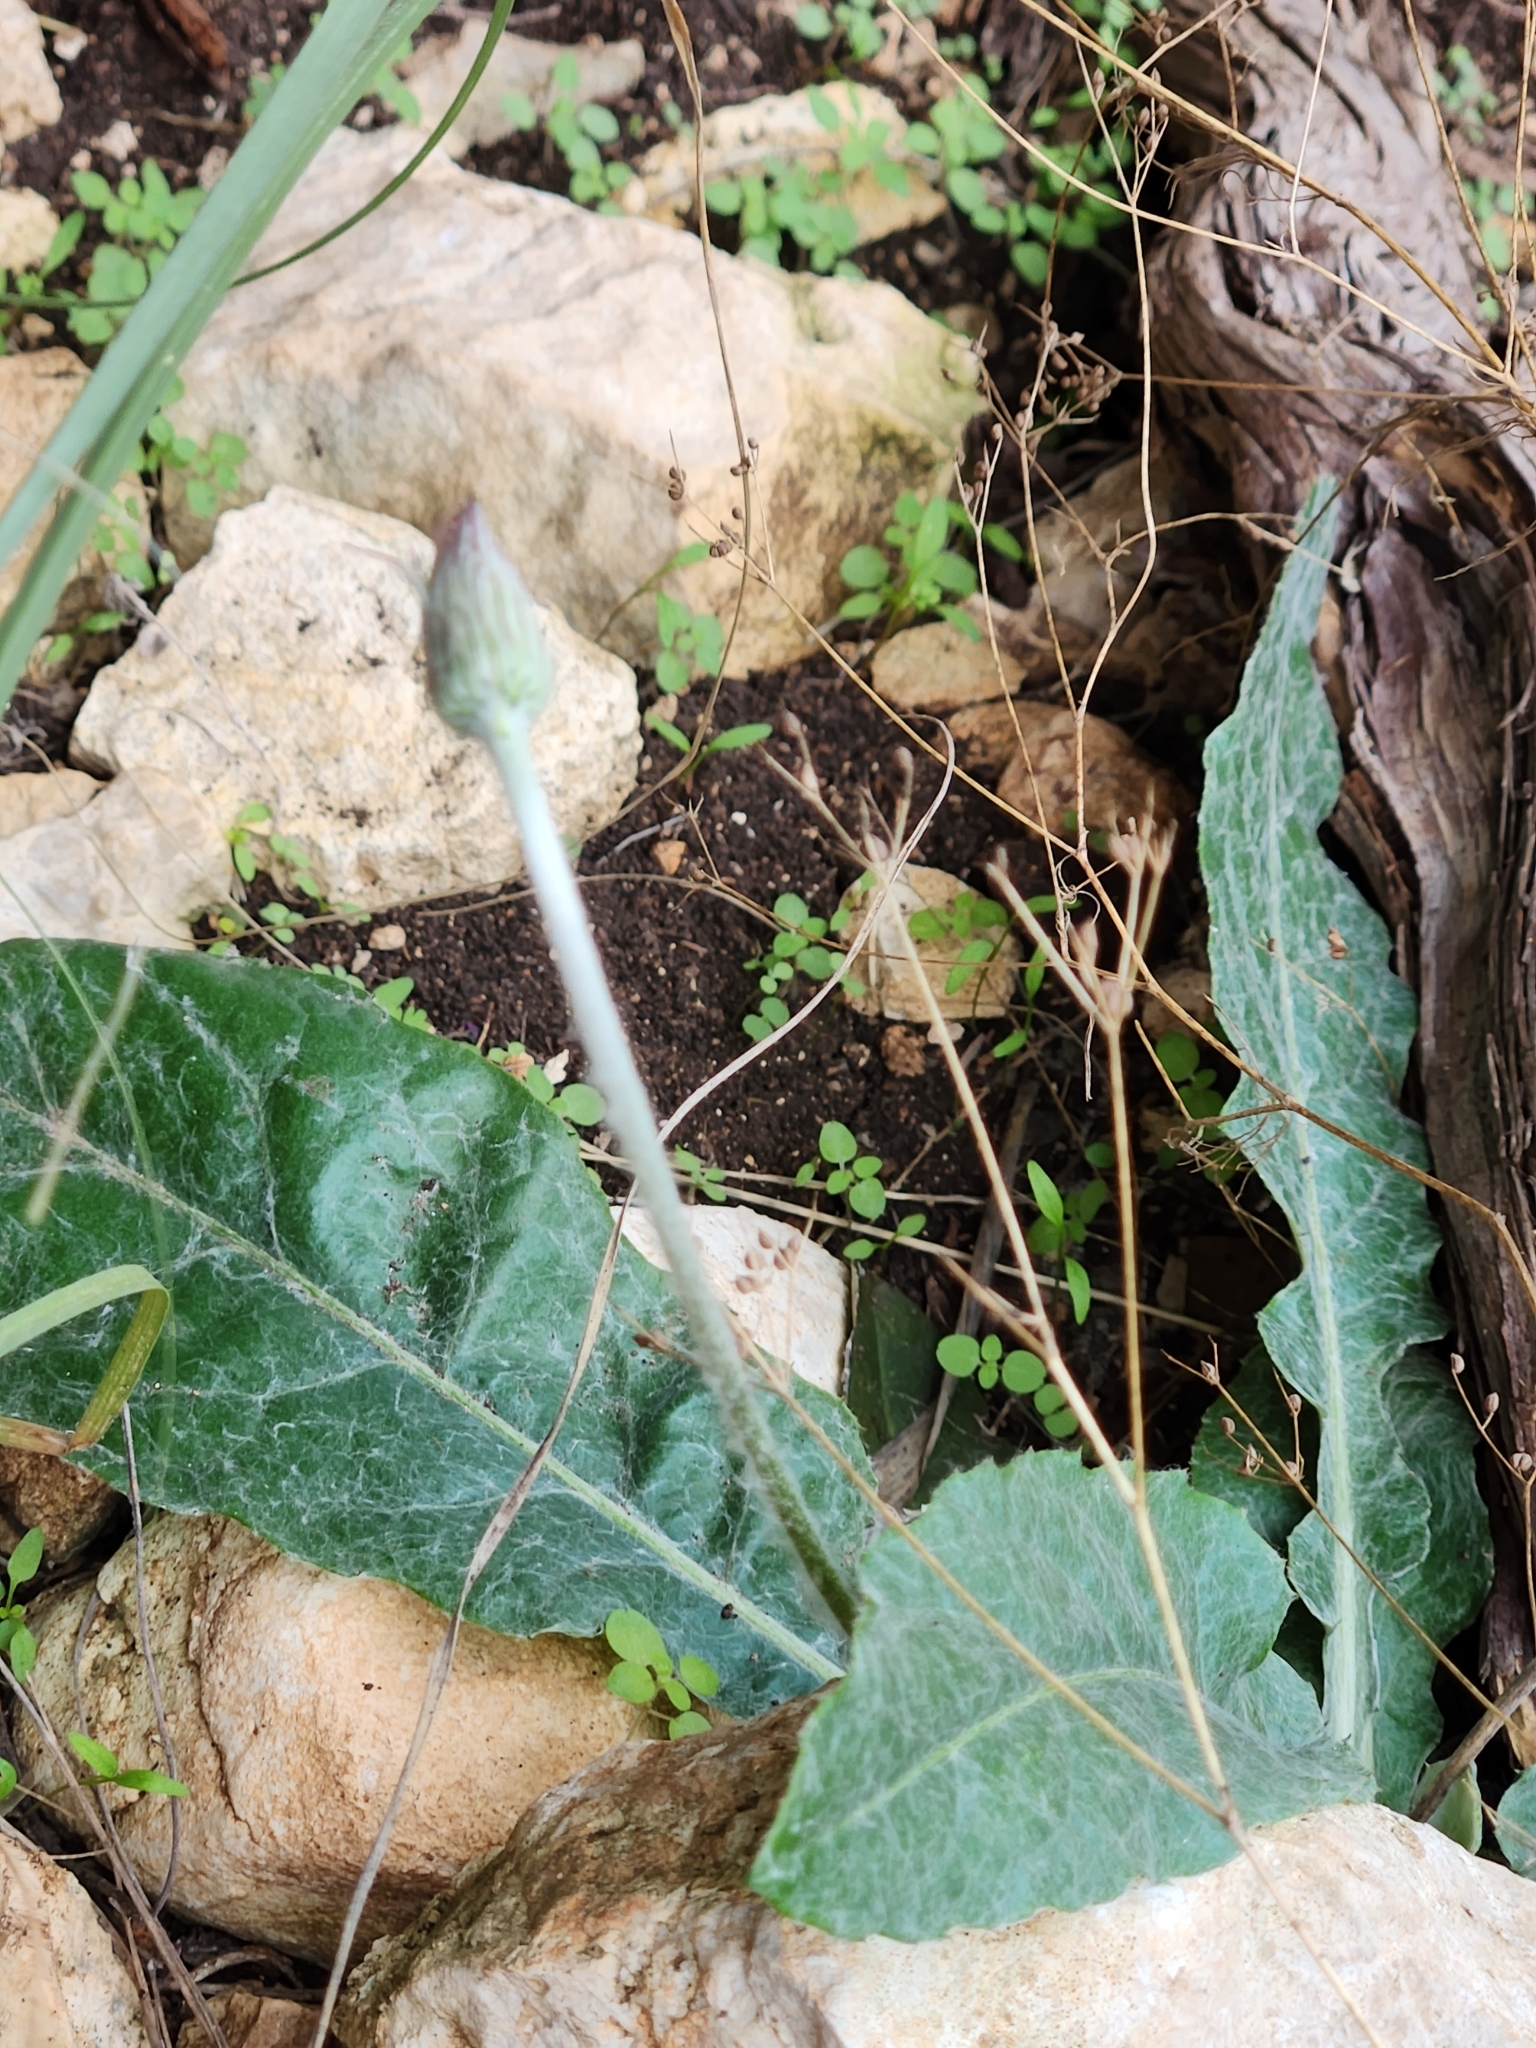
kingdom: Plantae
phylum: Tracheophyta
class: Magnoliopsida
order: Asterales
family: Asteraceae
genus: Chaptalia
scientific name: Chaptalia texana
